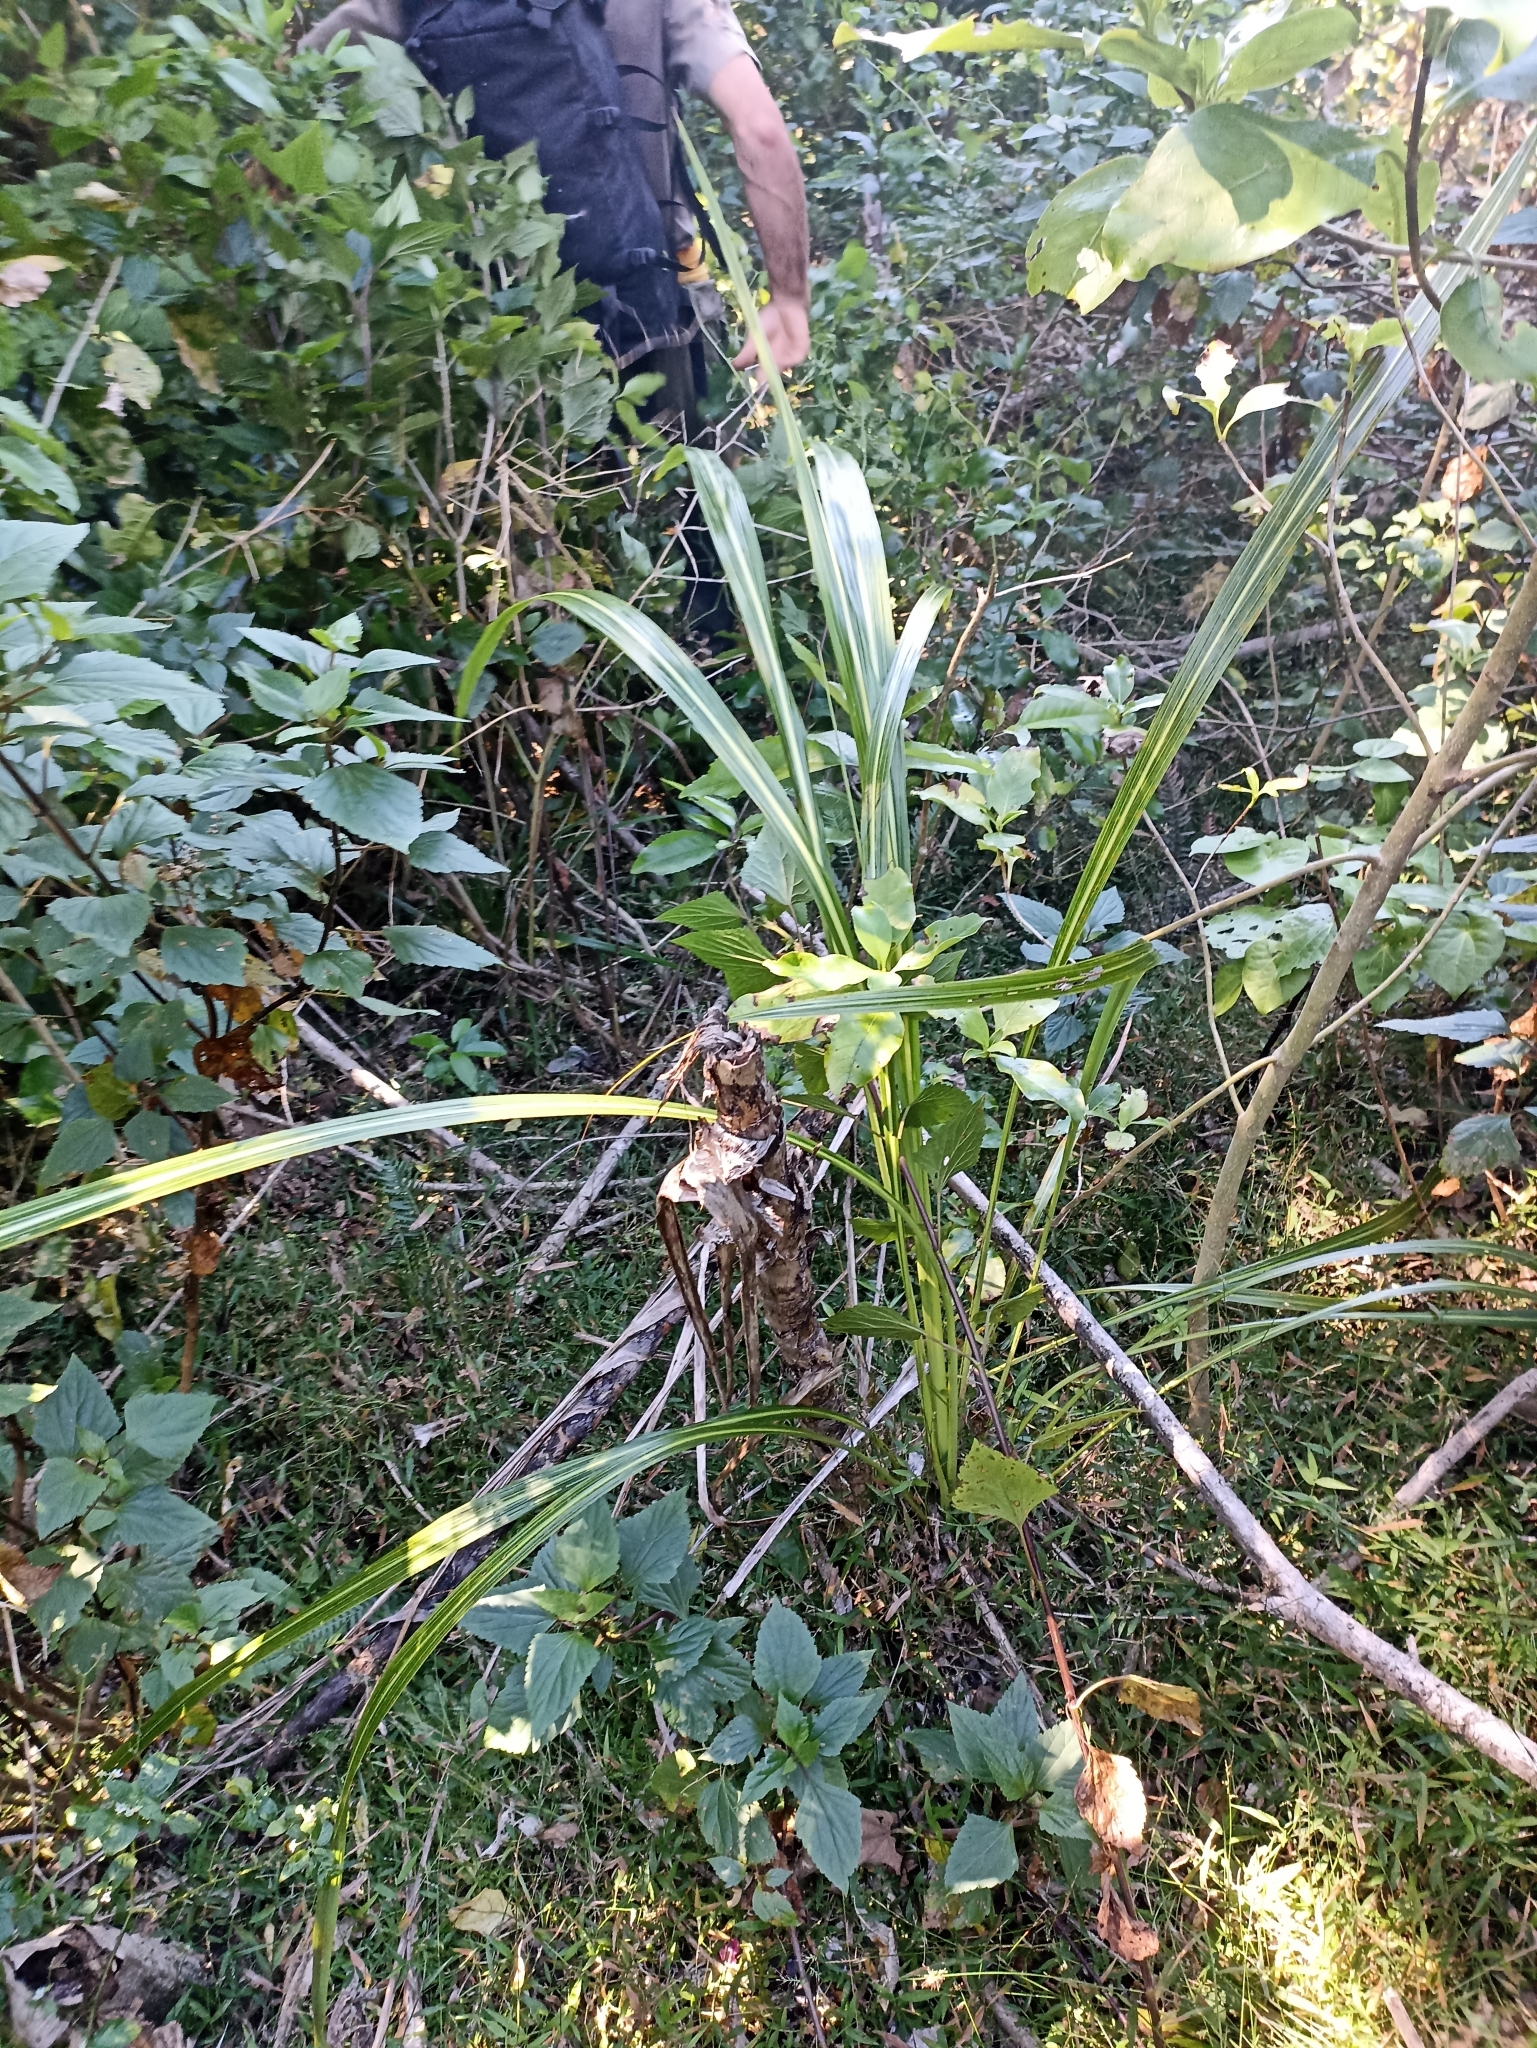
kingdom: Plantae
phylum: Tracheophyta
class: Liliopsida
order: Asparagales
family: Asparagaceae
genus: Cordyline
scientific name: Cordyline banksii
